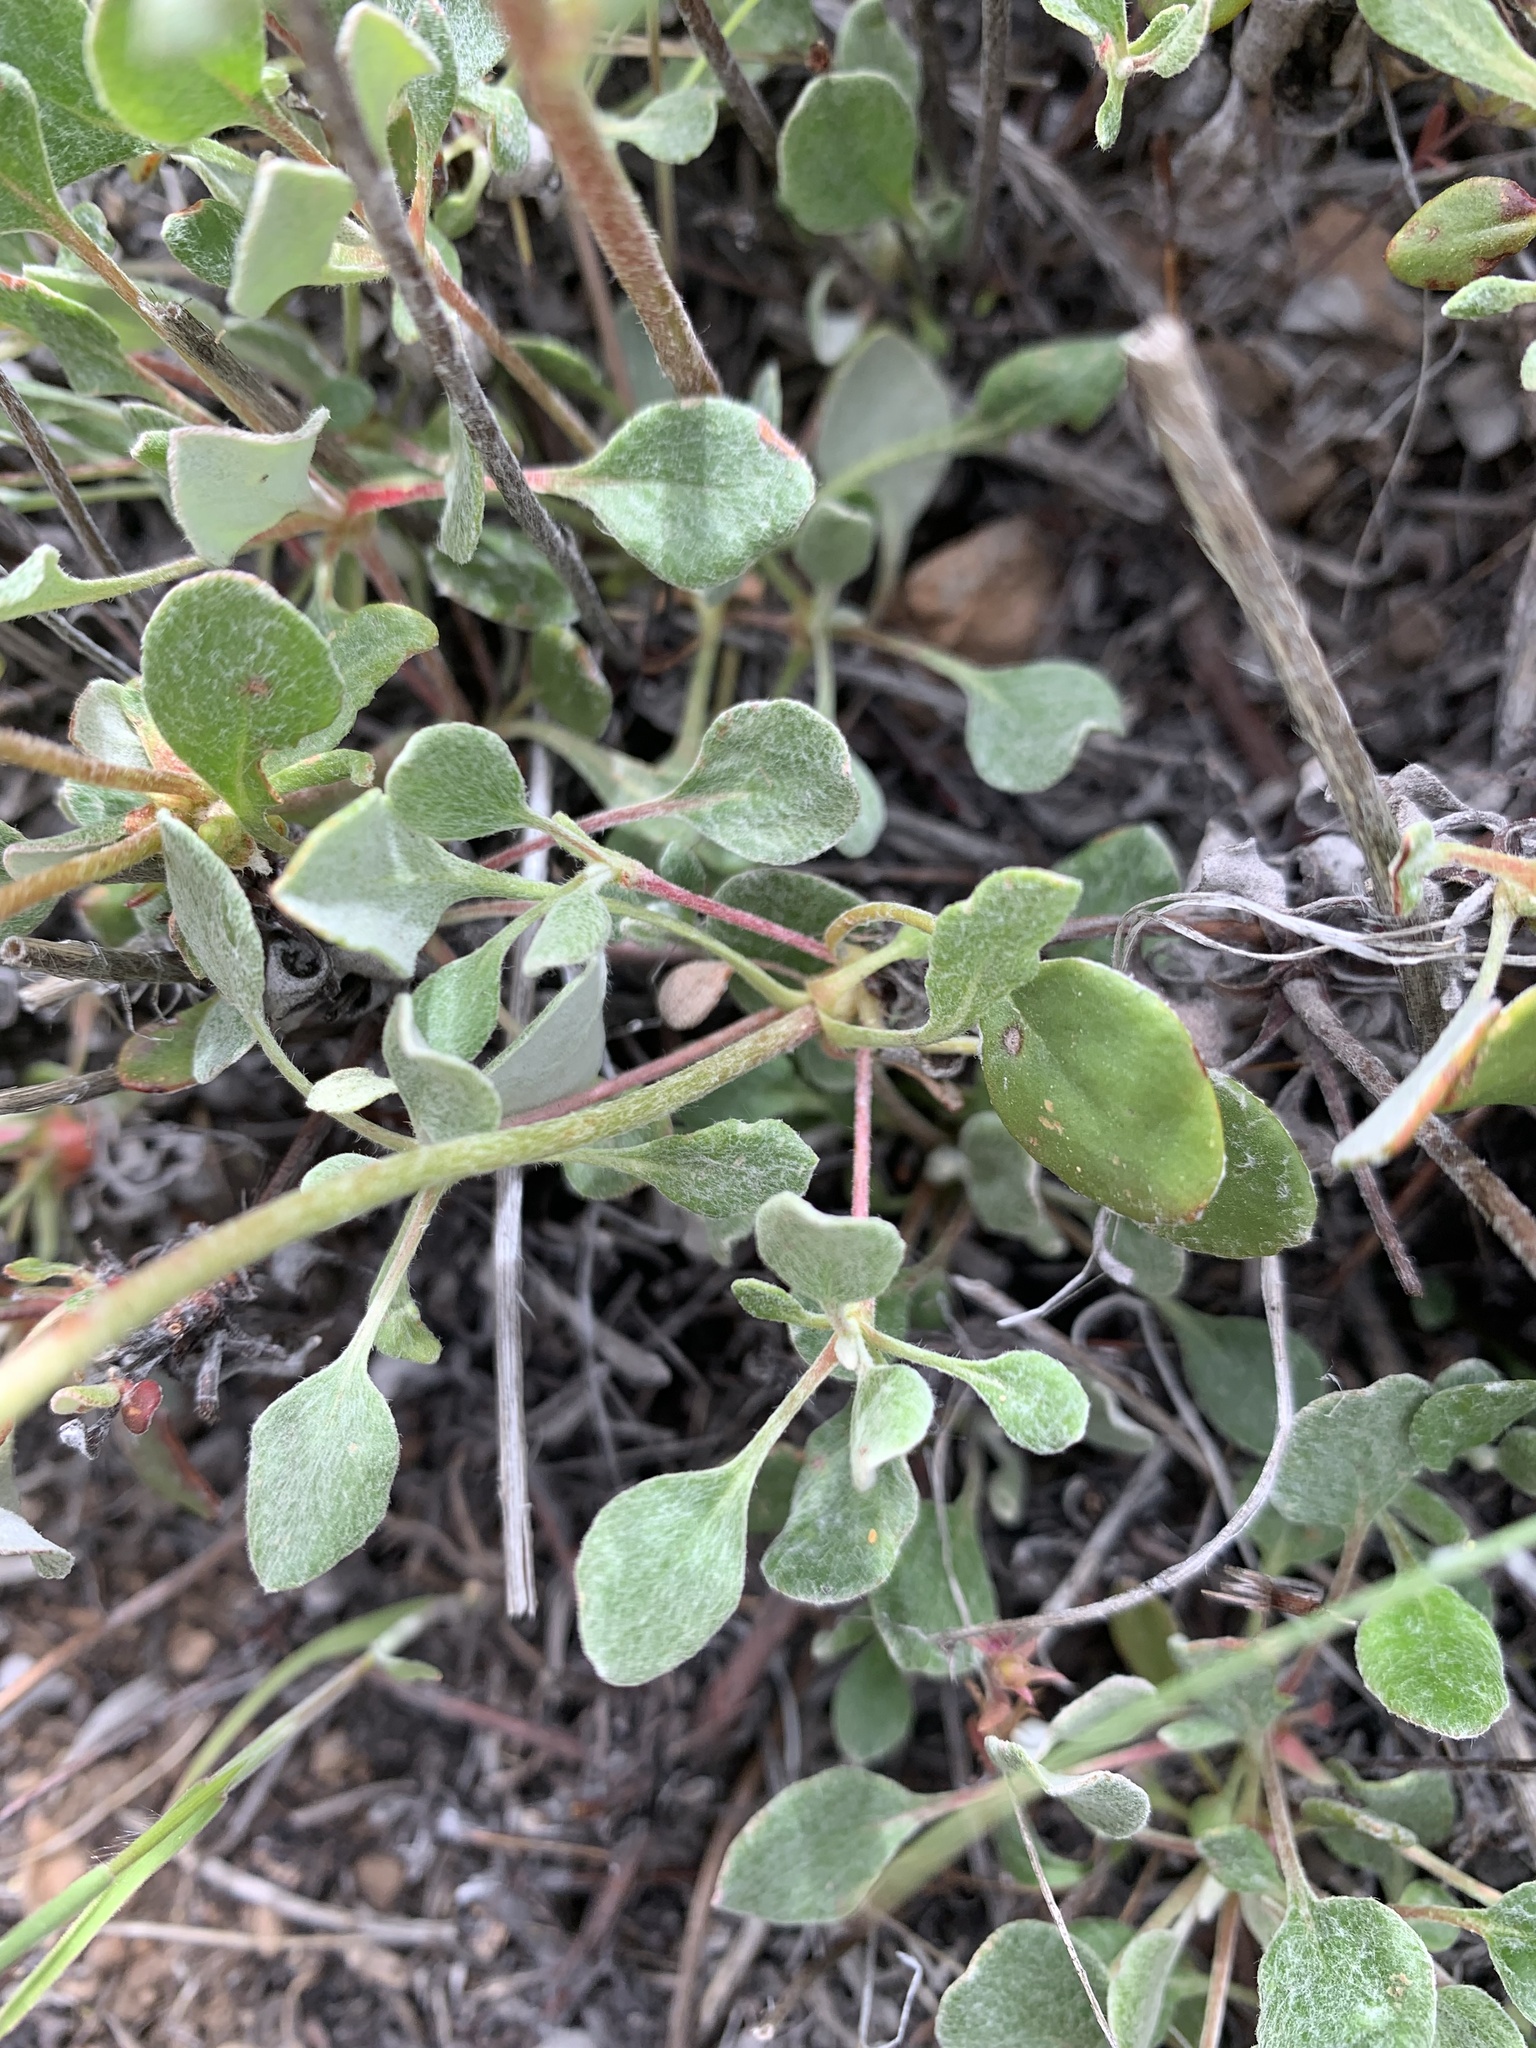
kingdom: Plantae
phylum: Tracheophyta
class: Magnoliopsida
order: Caryophyllales
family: Polygonaceae
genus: Eriogonum
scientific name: Eriogonum umbellatum
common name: Sulfur-buckwheat
